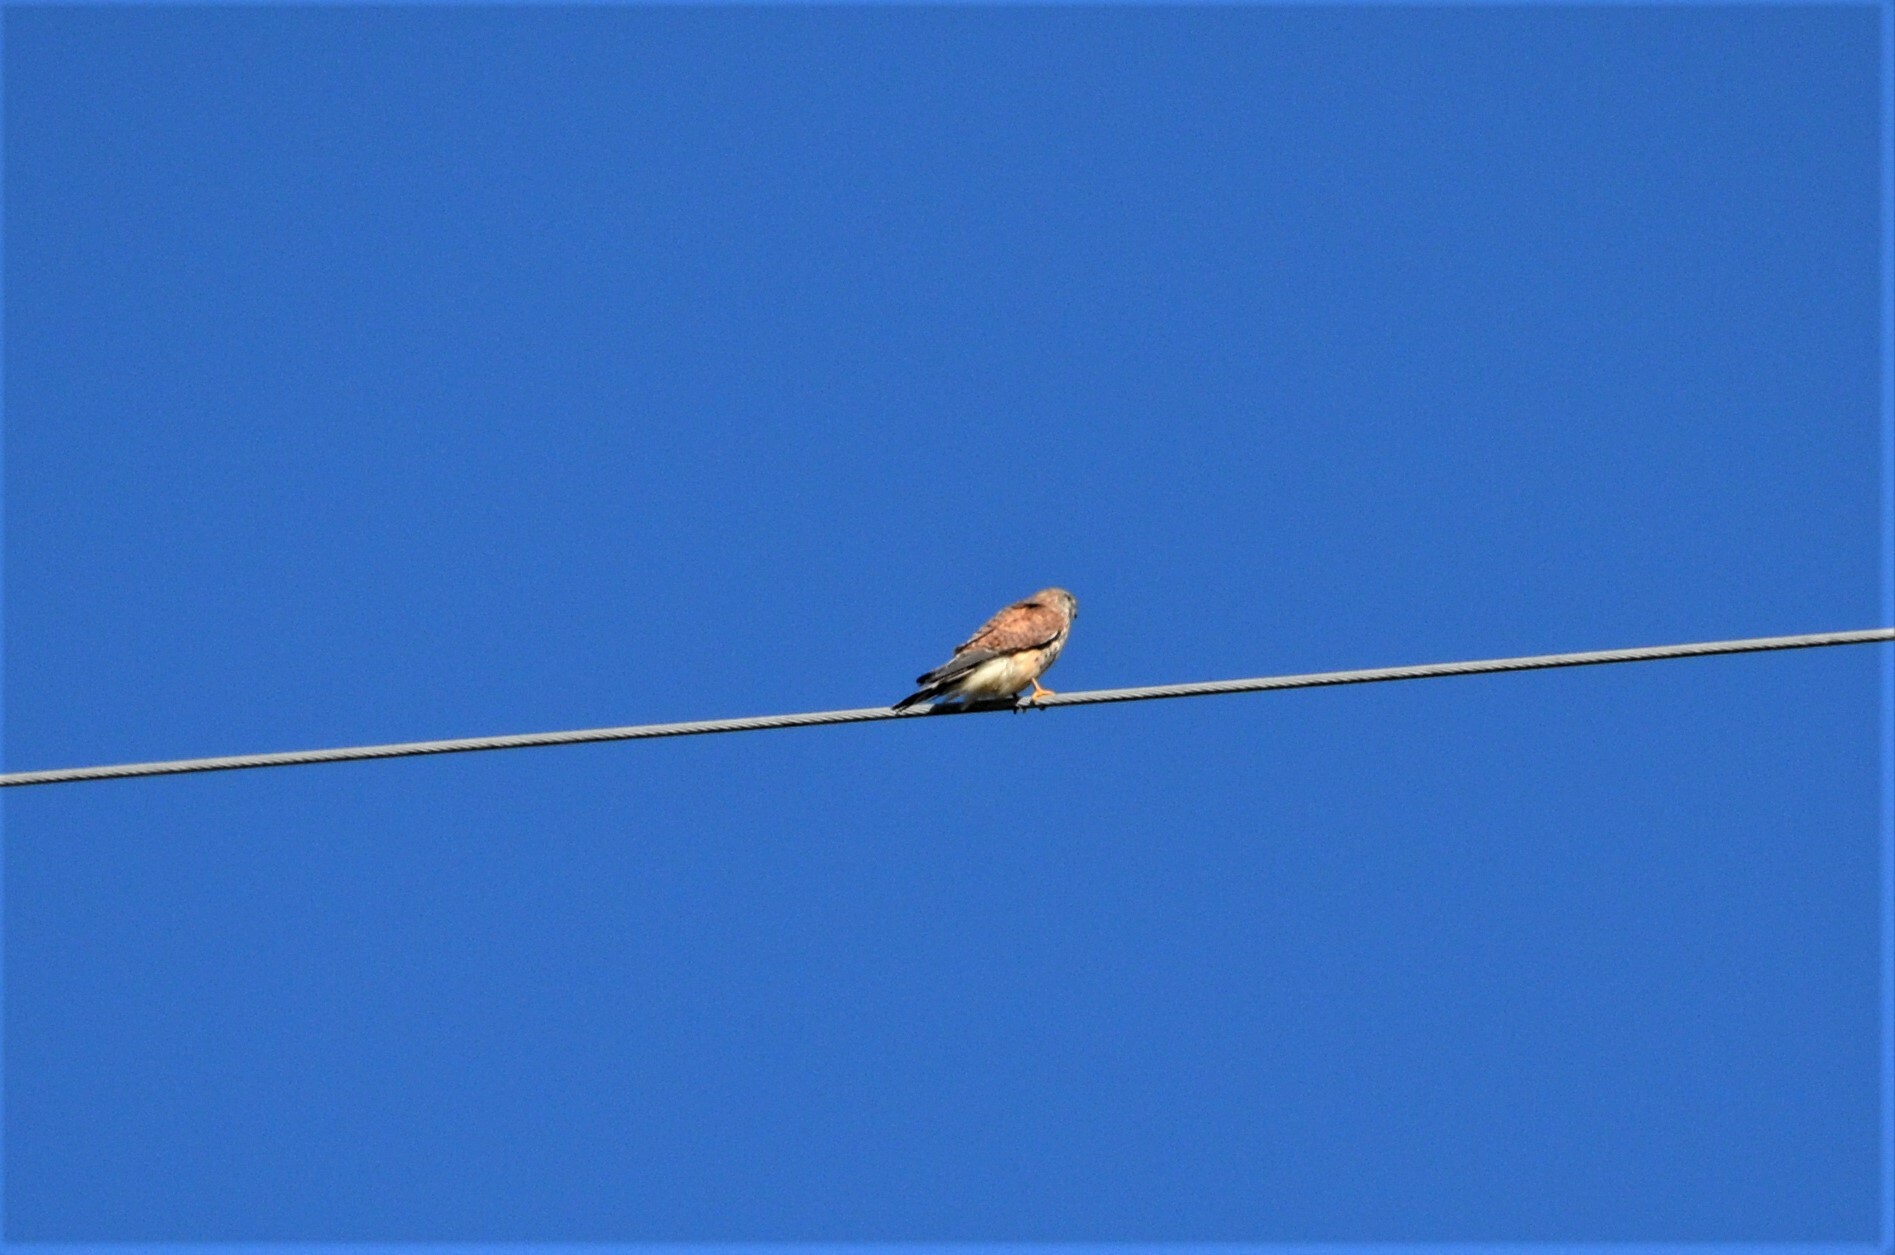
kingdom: Animalia
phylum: Chordata
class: Aves
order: Falconiformes
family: Falconidae
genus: Falco
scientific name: Falco tinnunculus
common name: Common kestrel
